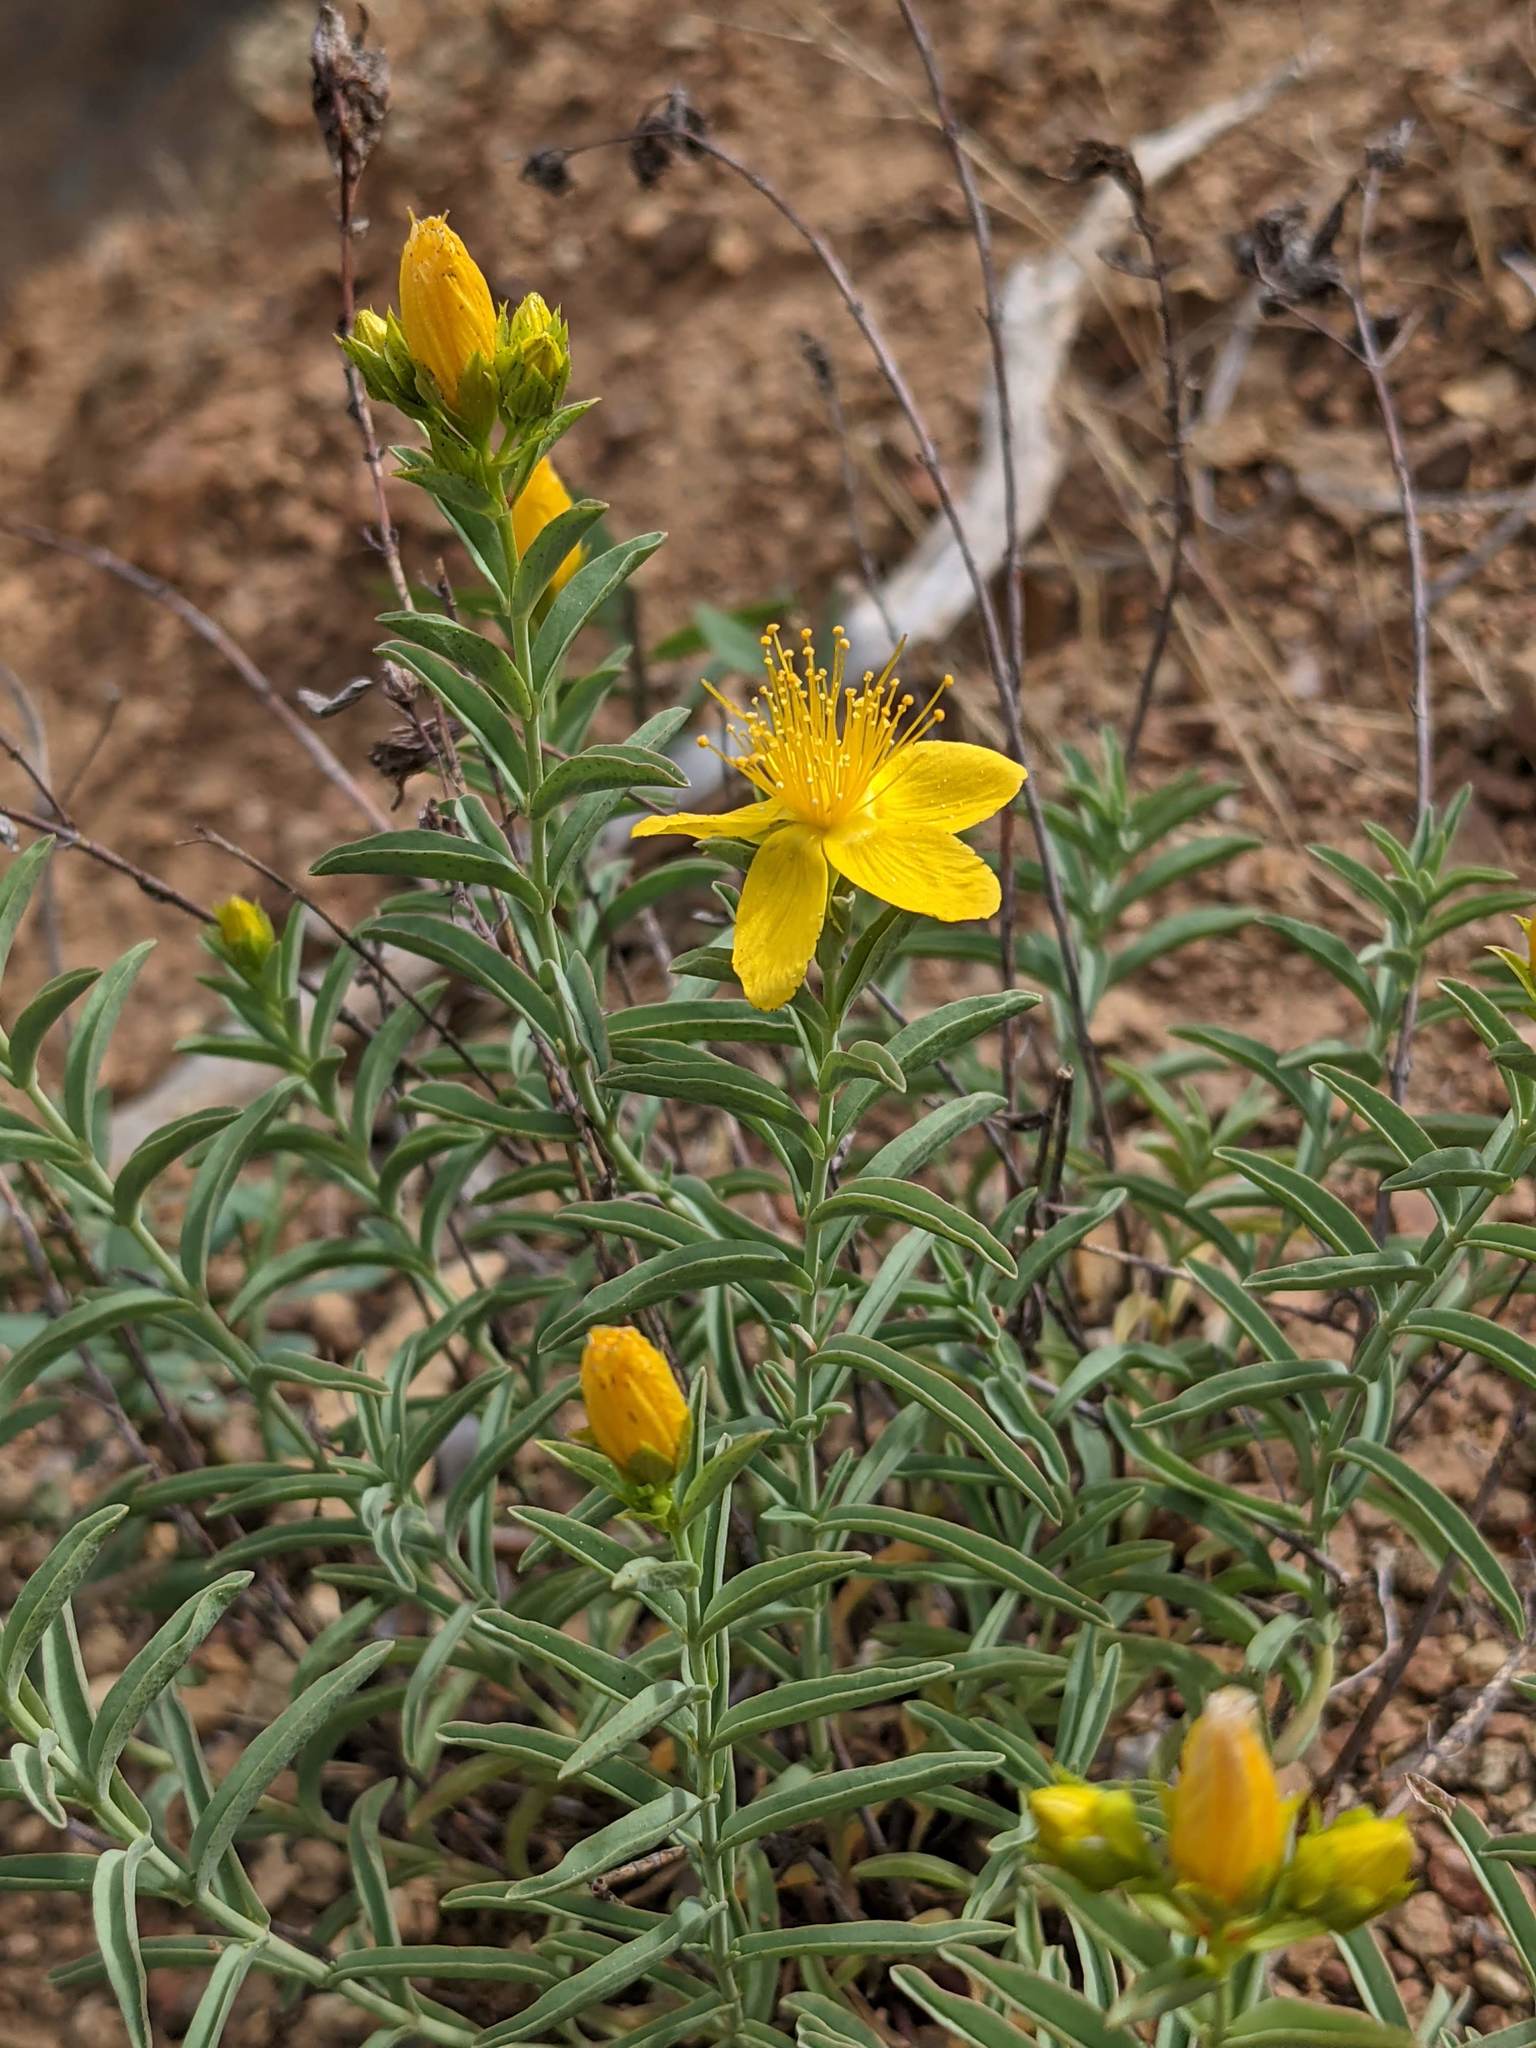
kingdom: Plantae
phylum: Tracheophyta
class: Magnoliopsida
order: Malpighiales
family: Hypericaceae
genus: Hypericum
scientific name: Hypericum concinnum
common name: Gold-wire
